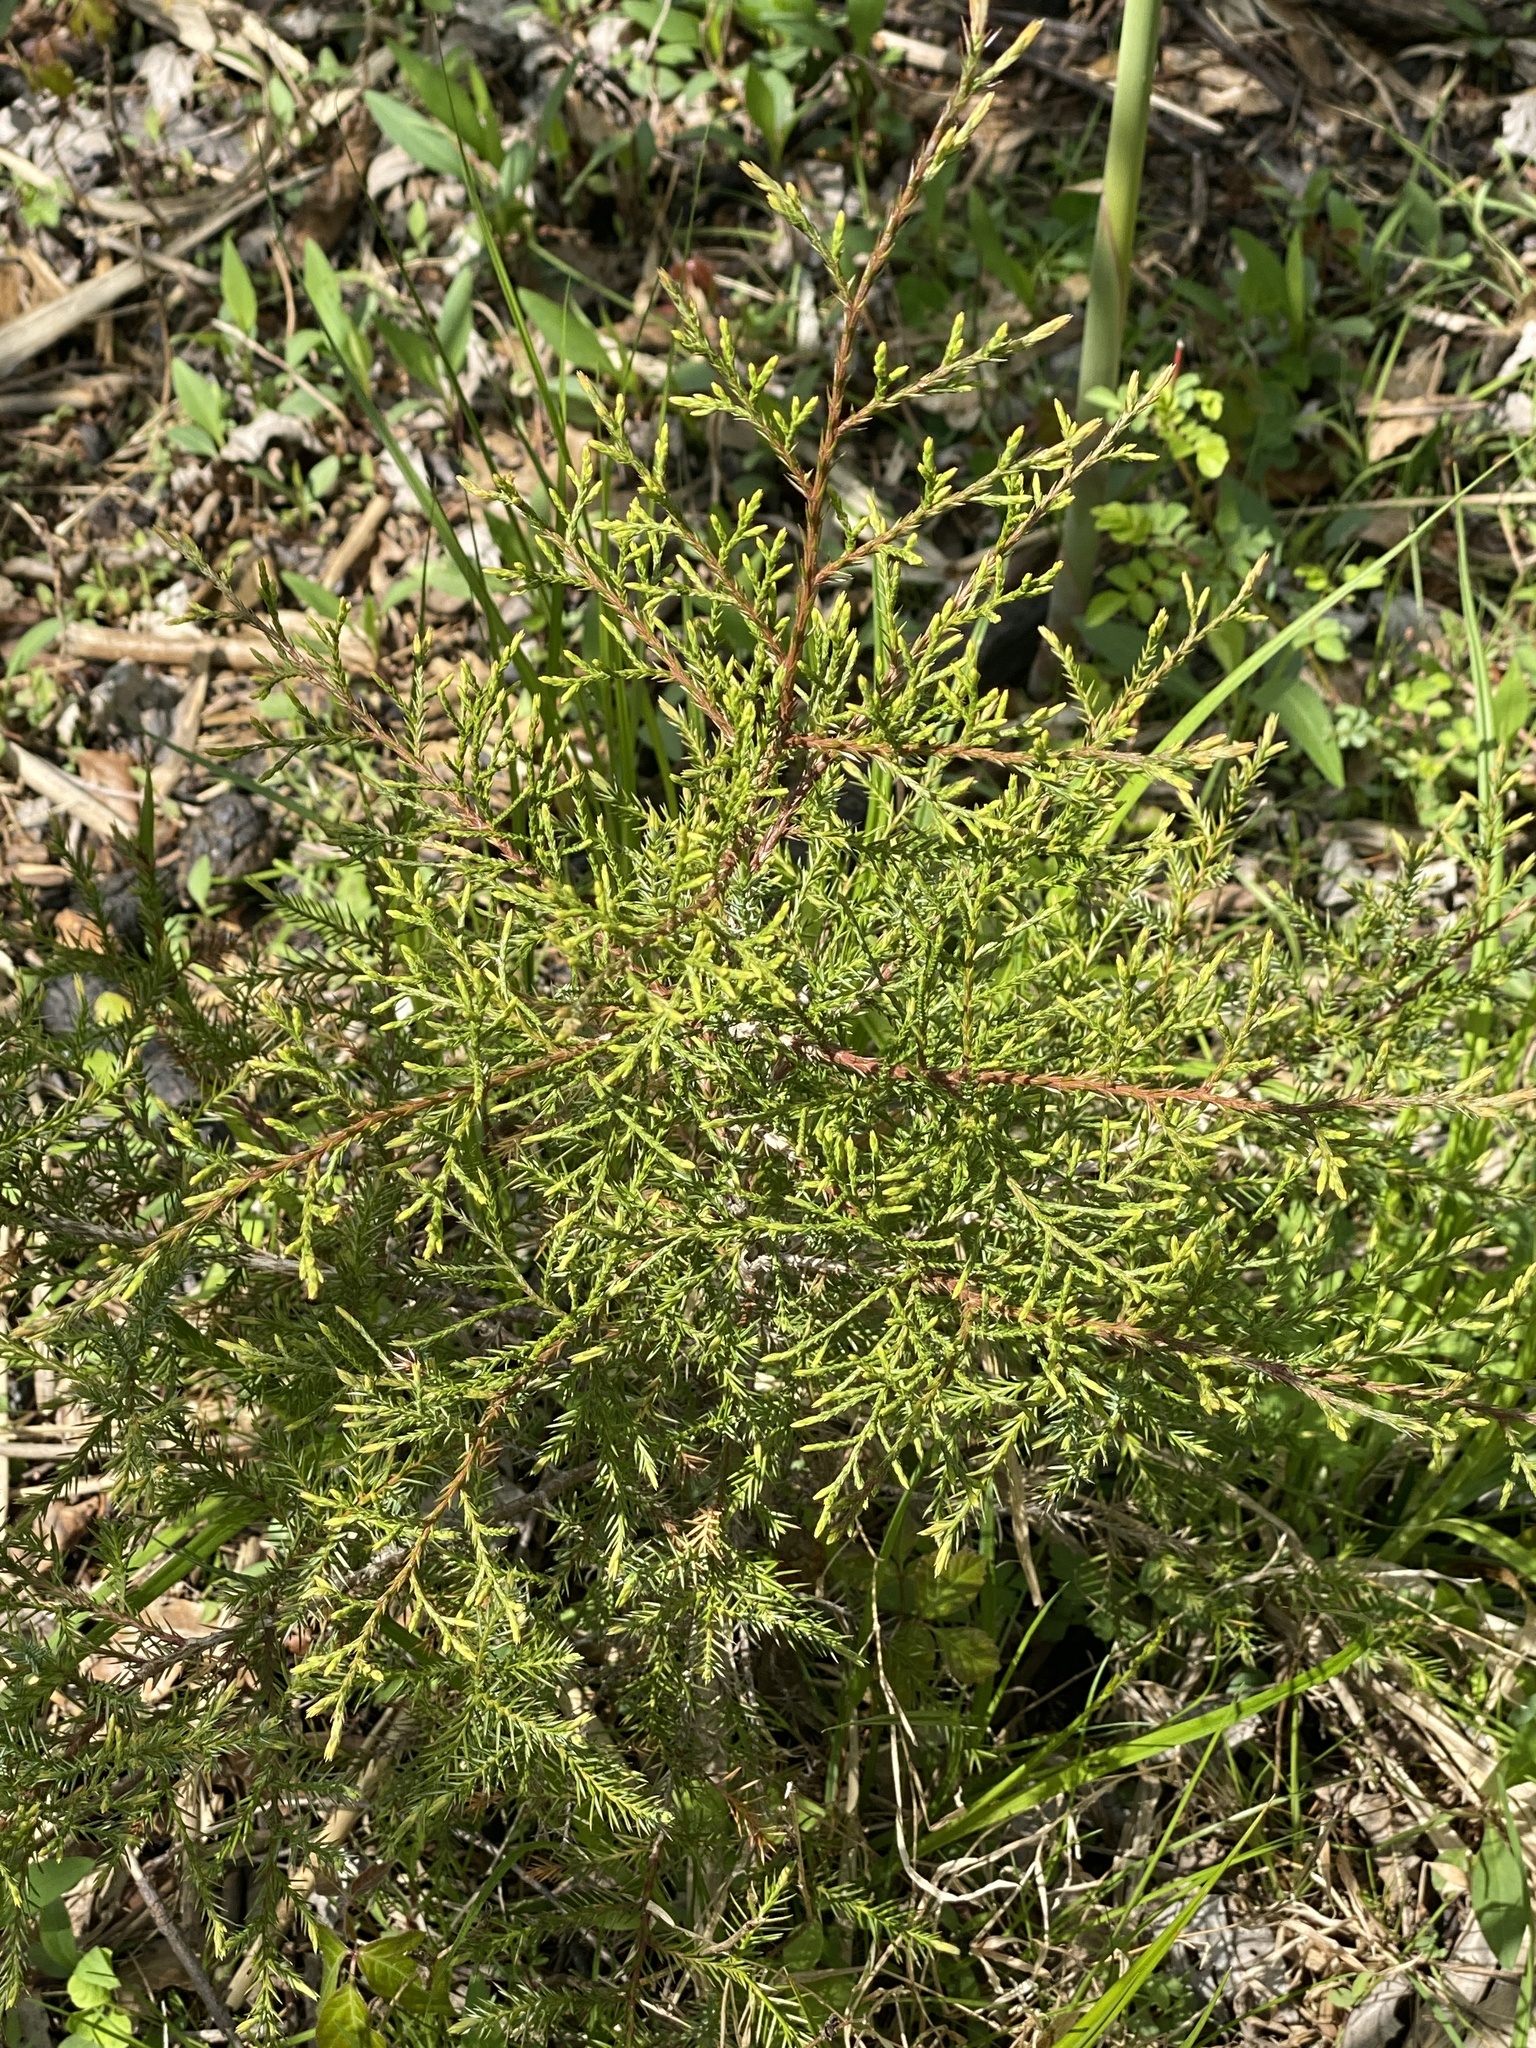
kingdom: Plantae
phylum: Tracheophyta
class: Pinopsida
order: Pinales
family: Cupressaceae
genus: Juniperus
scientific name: Juniperus virginiana
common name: Red juniper
